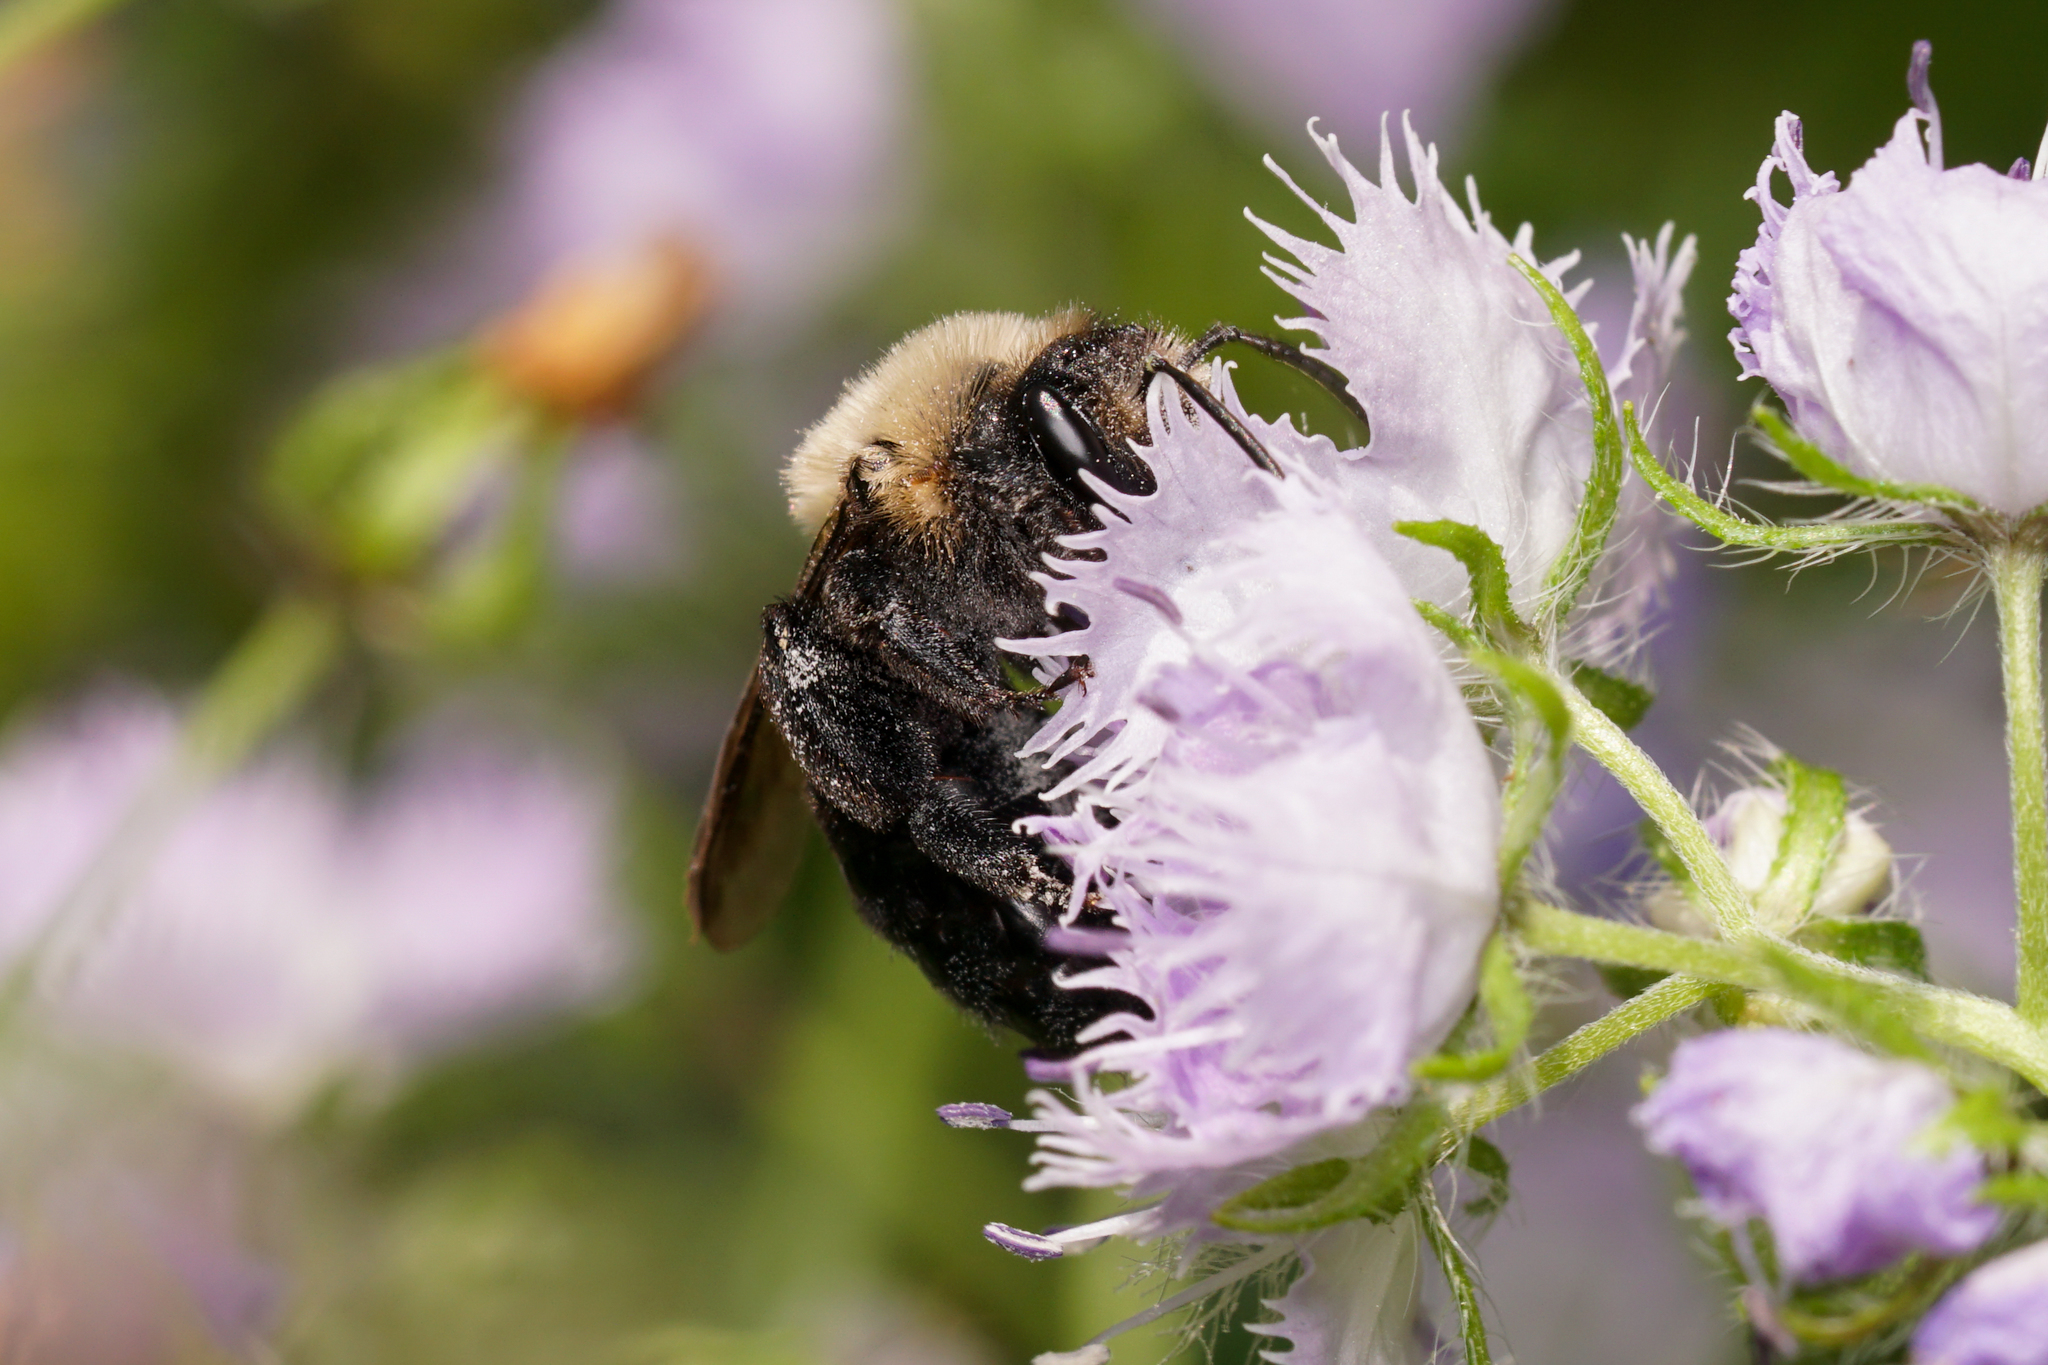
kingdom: Animalia
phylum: Arthropoda
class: Insecta
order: Hymenoptera
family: Andrenidae
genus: Andrena
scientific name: Andrena vicina
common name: Neighborly mining bee
